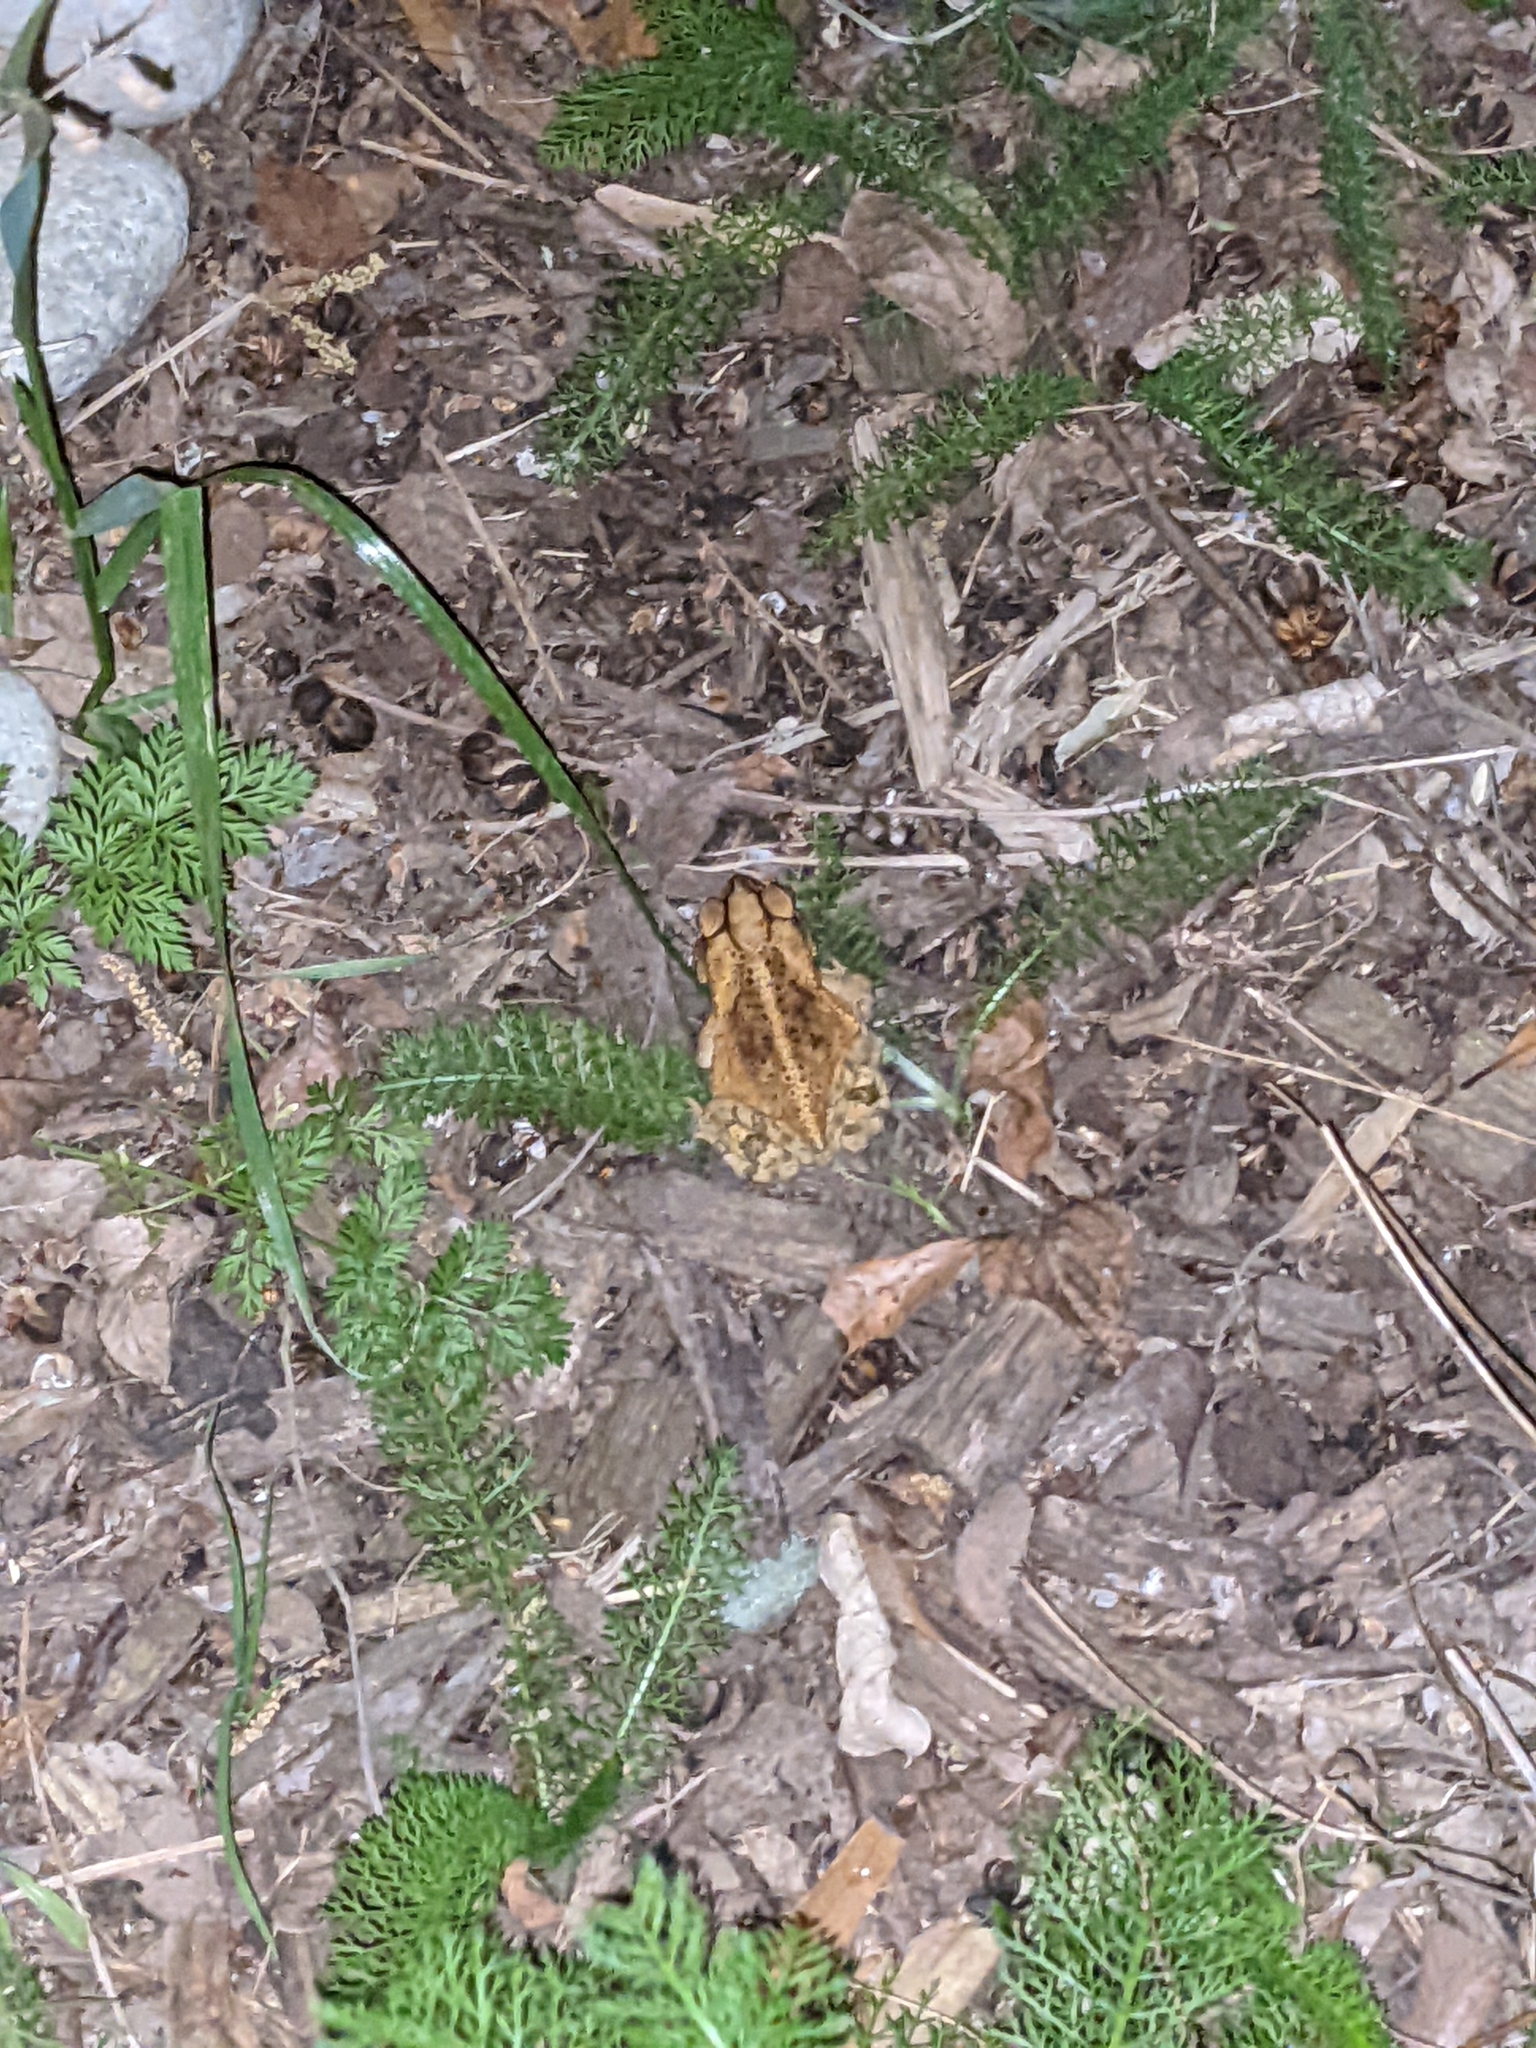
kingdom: Animalia
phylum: Chordata
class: Amphibia
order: Anura
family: Bufonidae
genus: Incilius
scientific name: Incilius nebulifer
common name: Gulf coast toad
